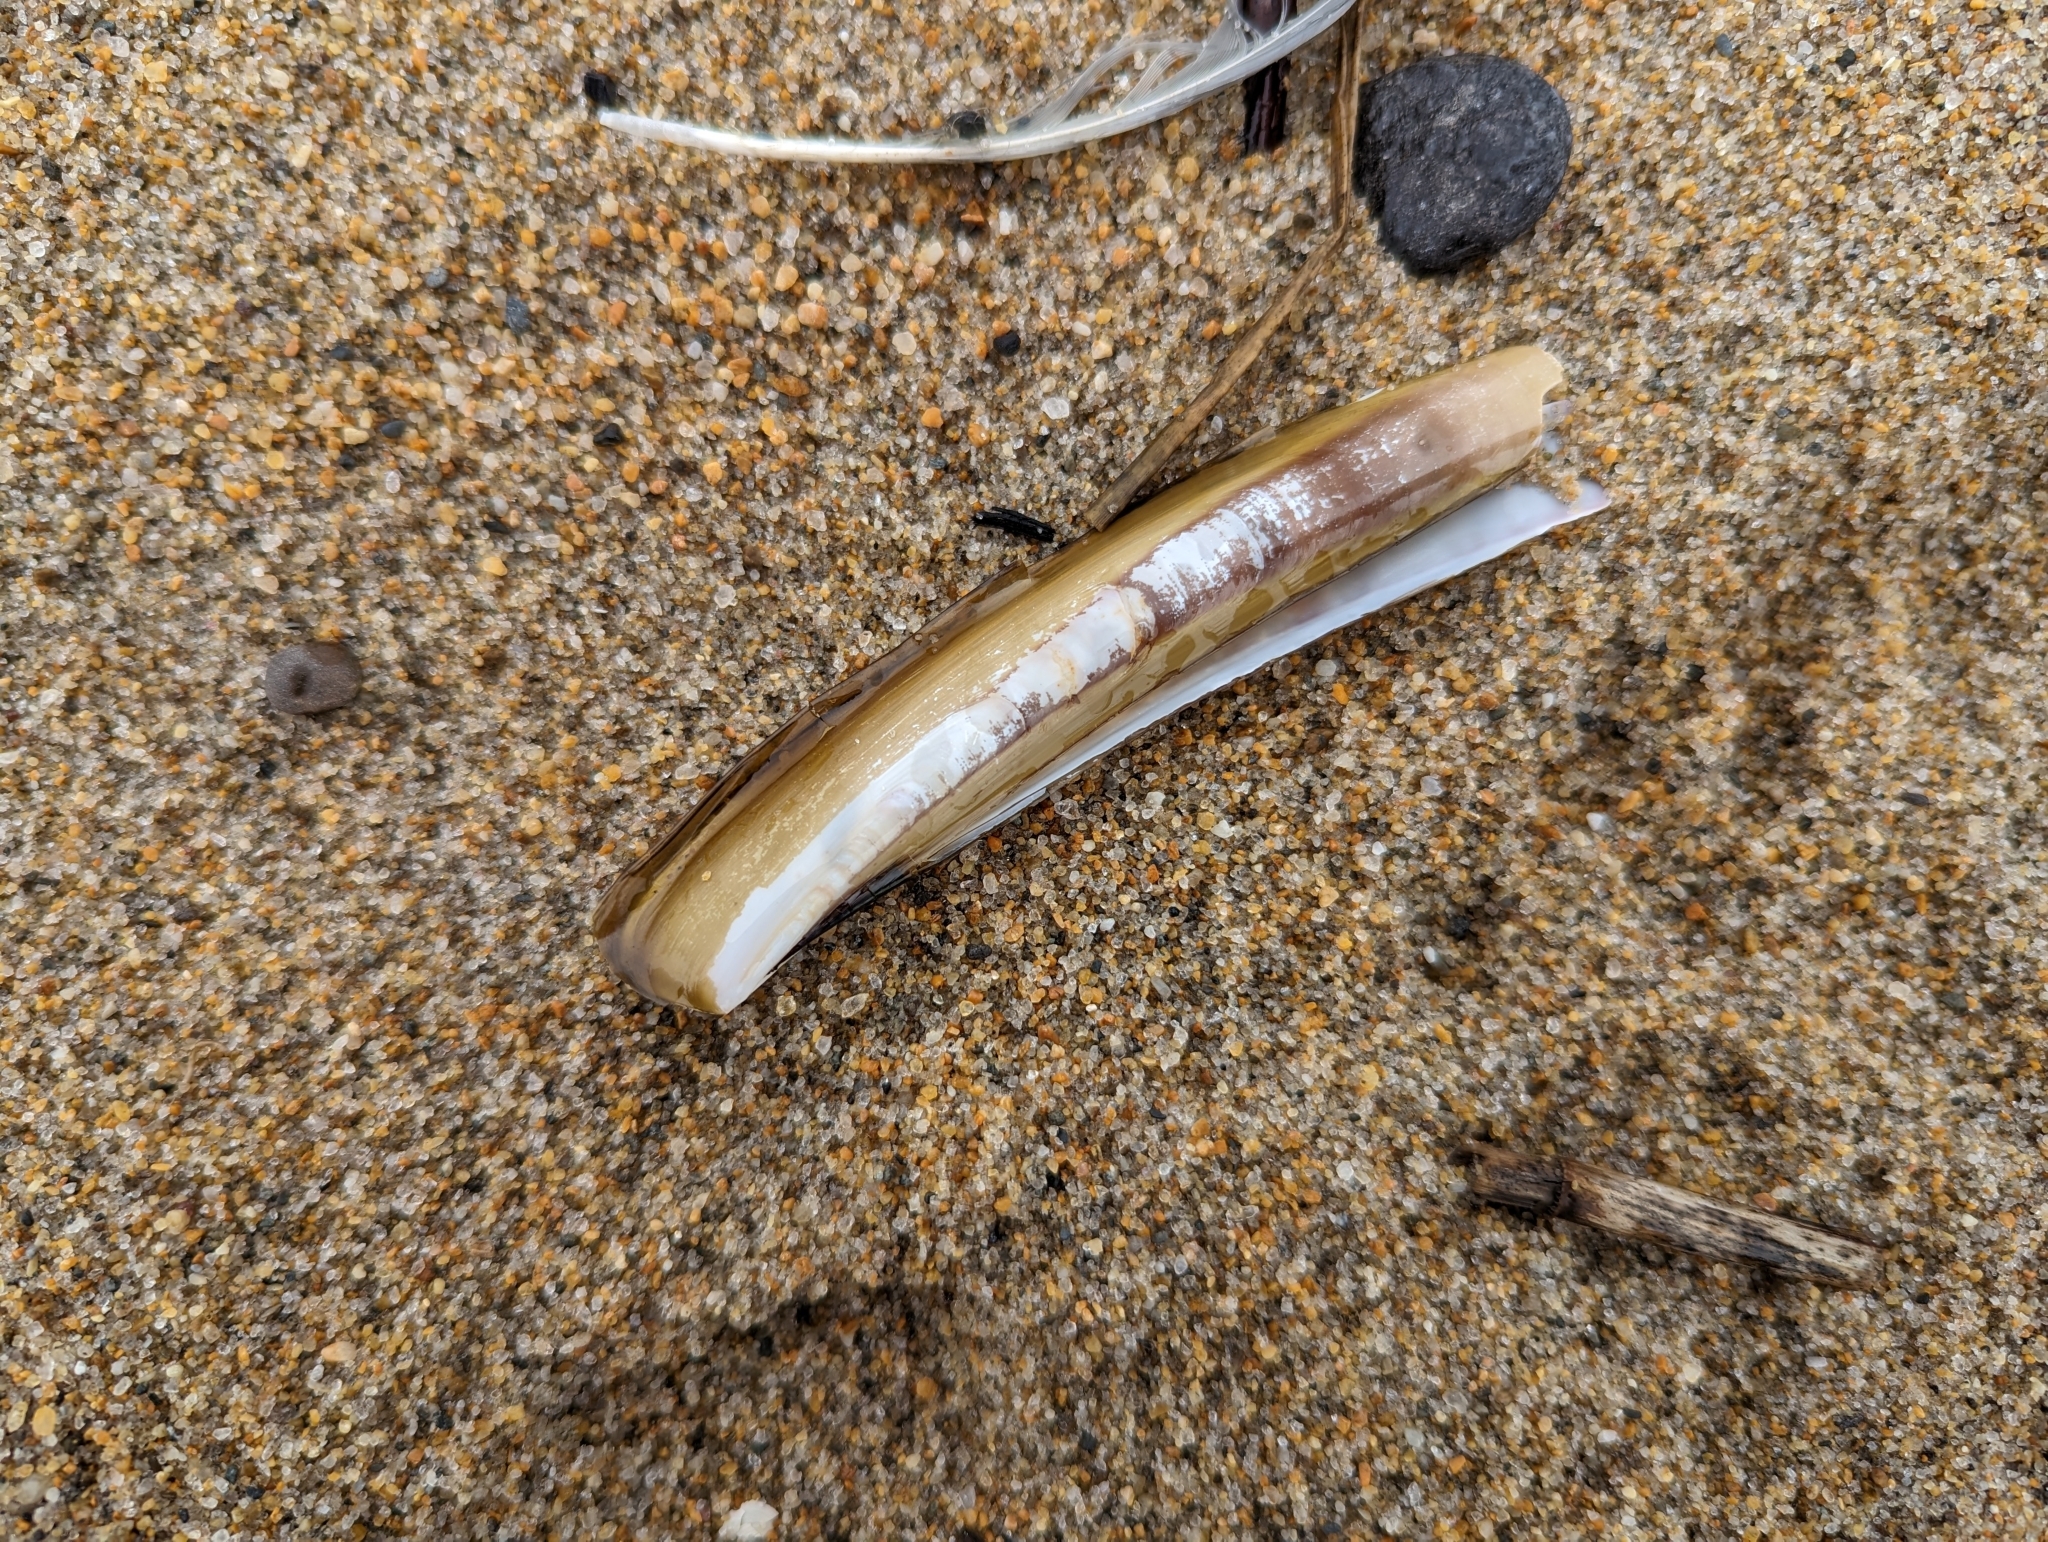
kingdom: Animalia
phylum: Mollusca
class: Bivalvia
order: Adapedonta
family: Pharidae
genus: Ensis
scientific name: Ensis leei
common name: American jack knife clam
